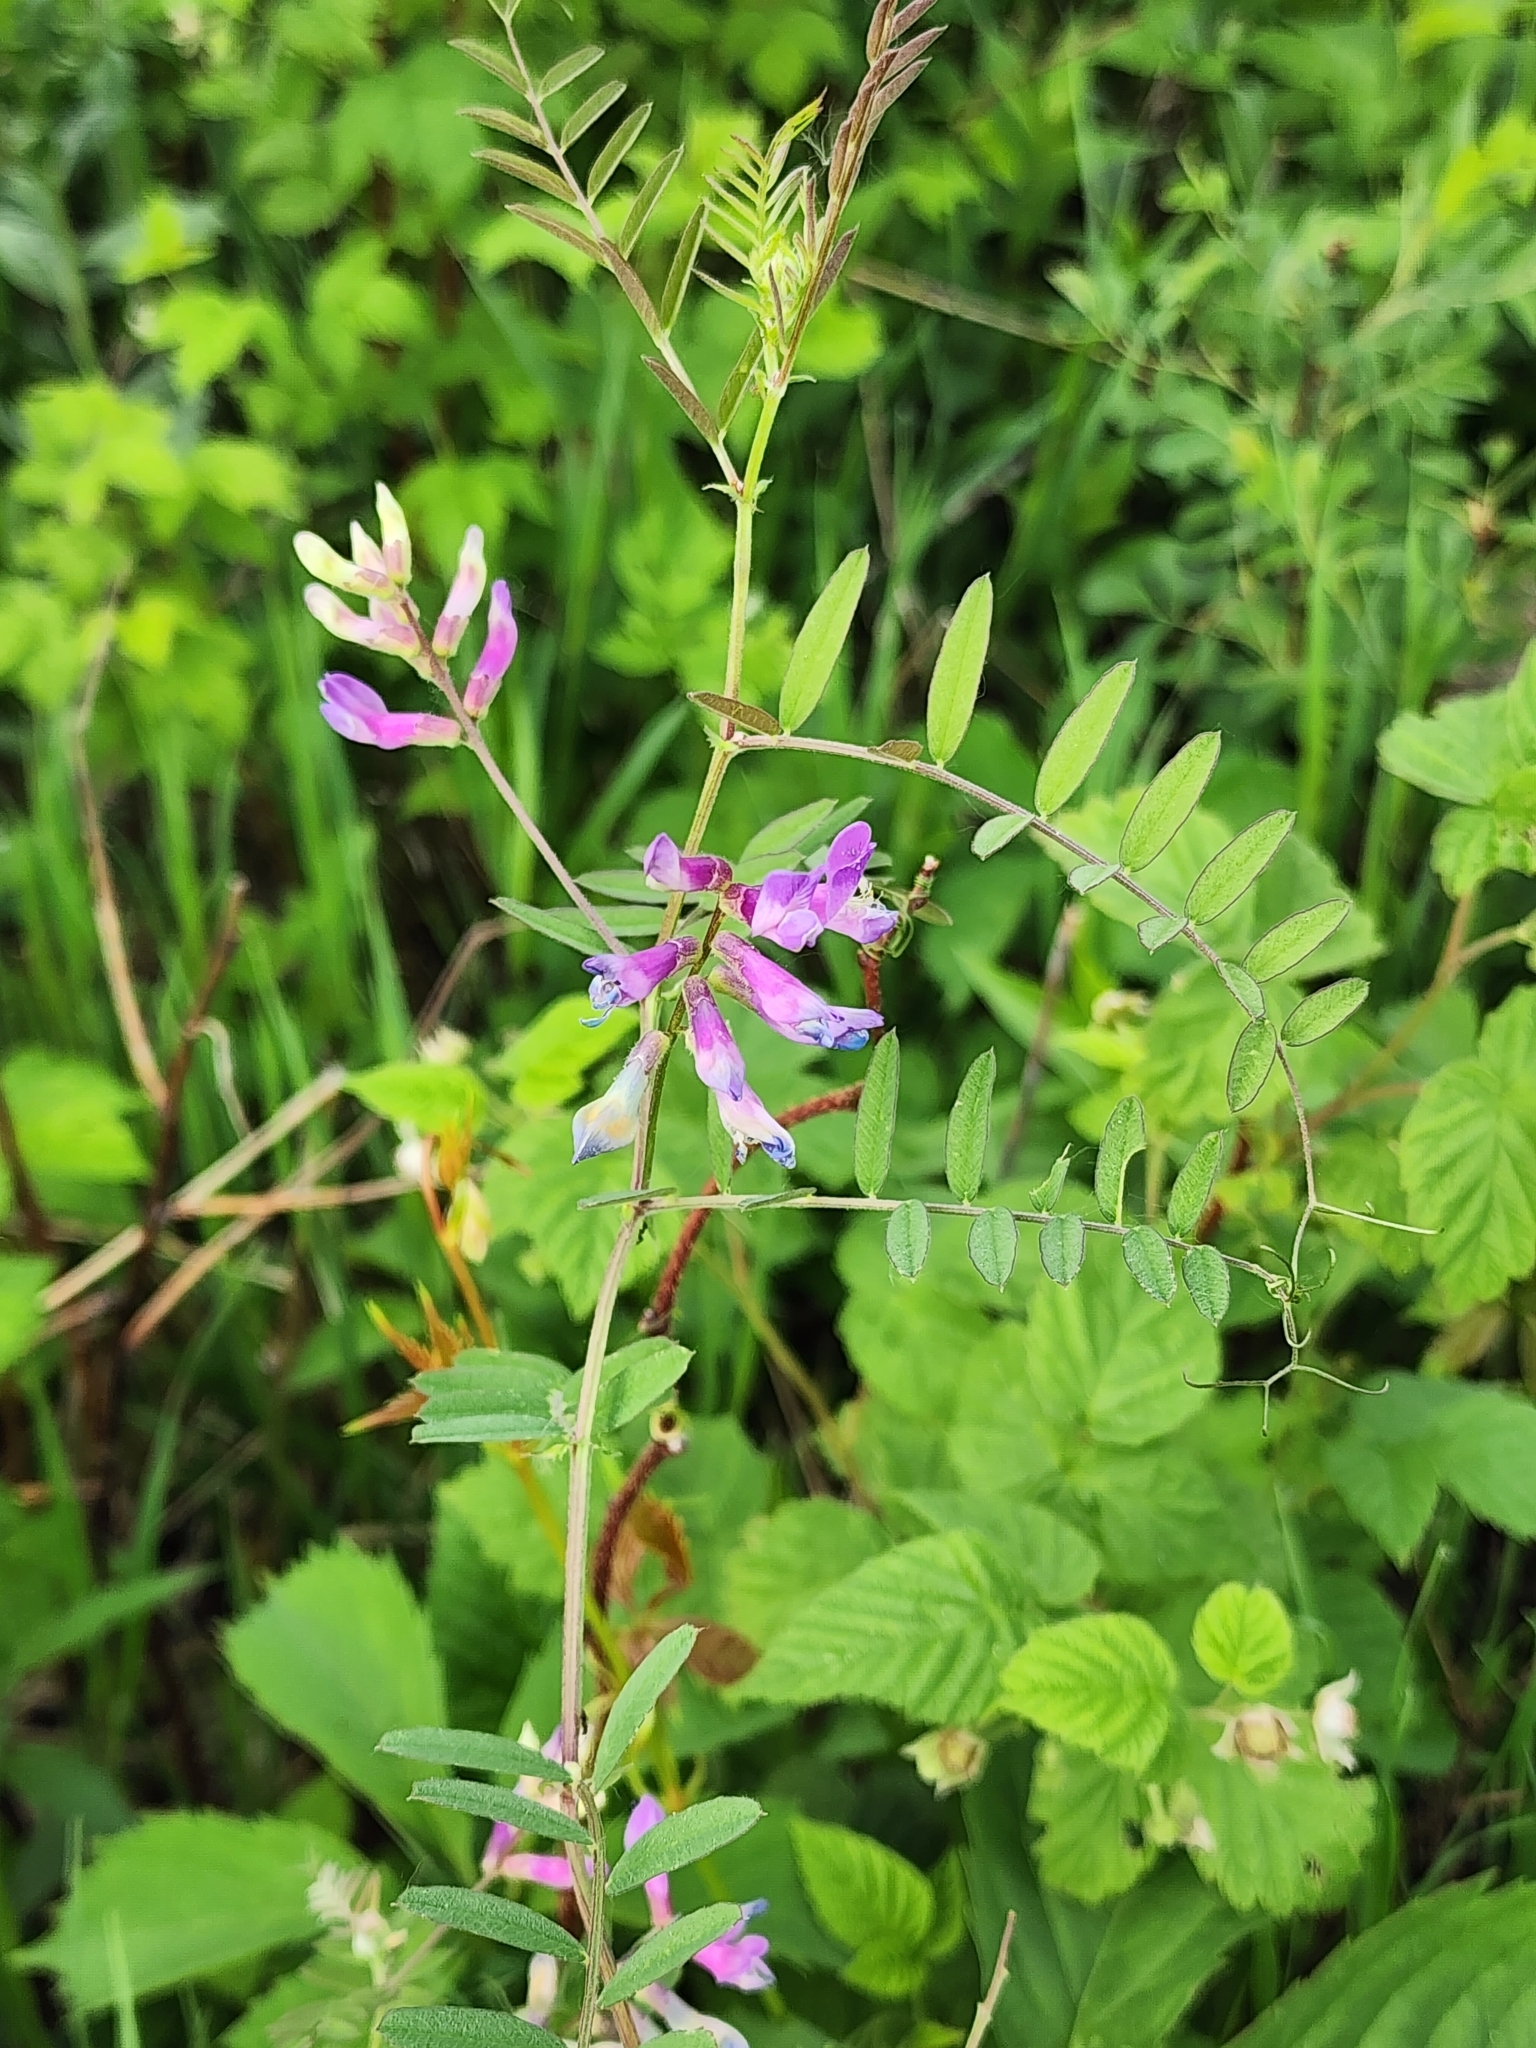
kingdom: Plantae
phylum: Tracheophyta
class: Magnoliopsida
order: Fabales
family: Fabaceae
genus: Vicia
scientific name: Vicia americana
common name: American vetch
